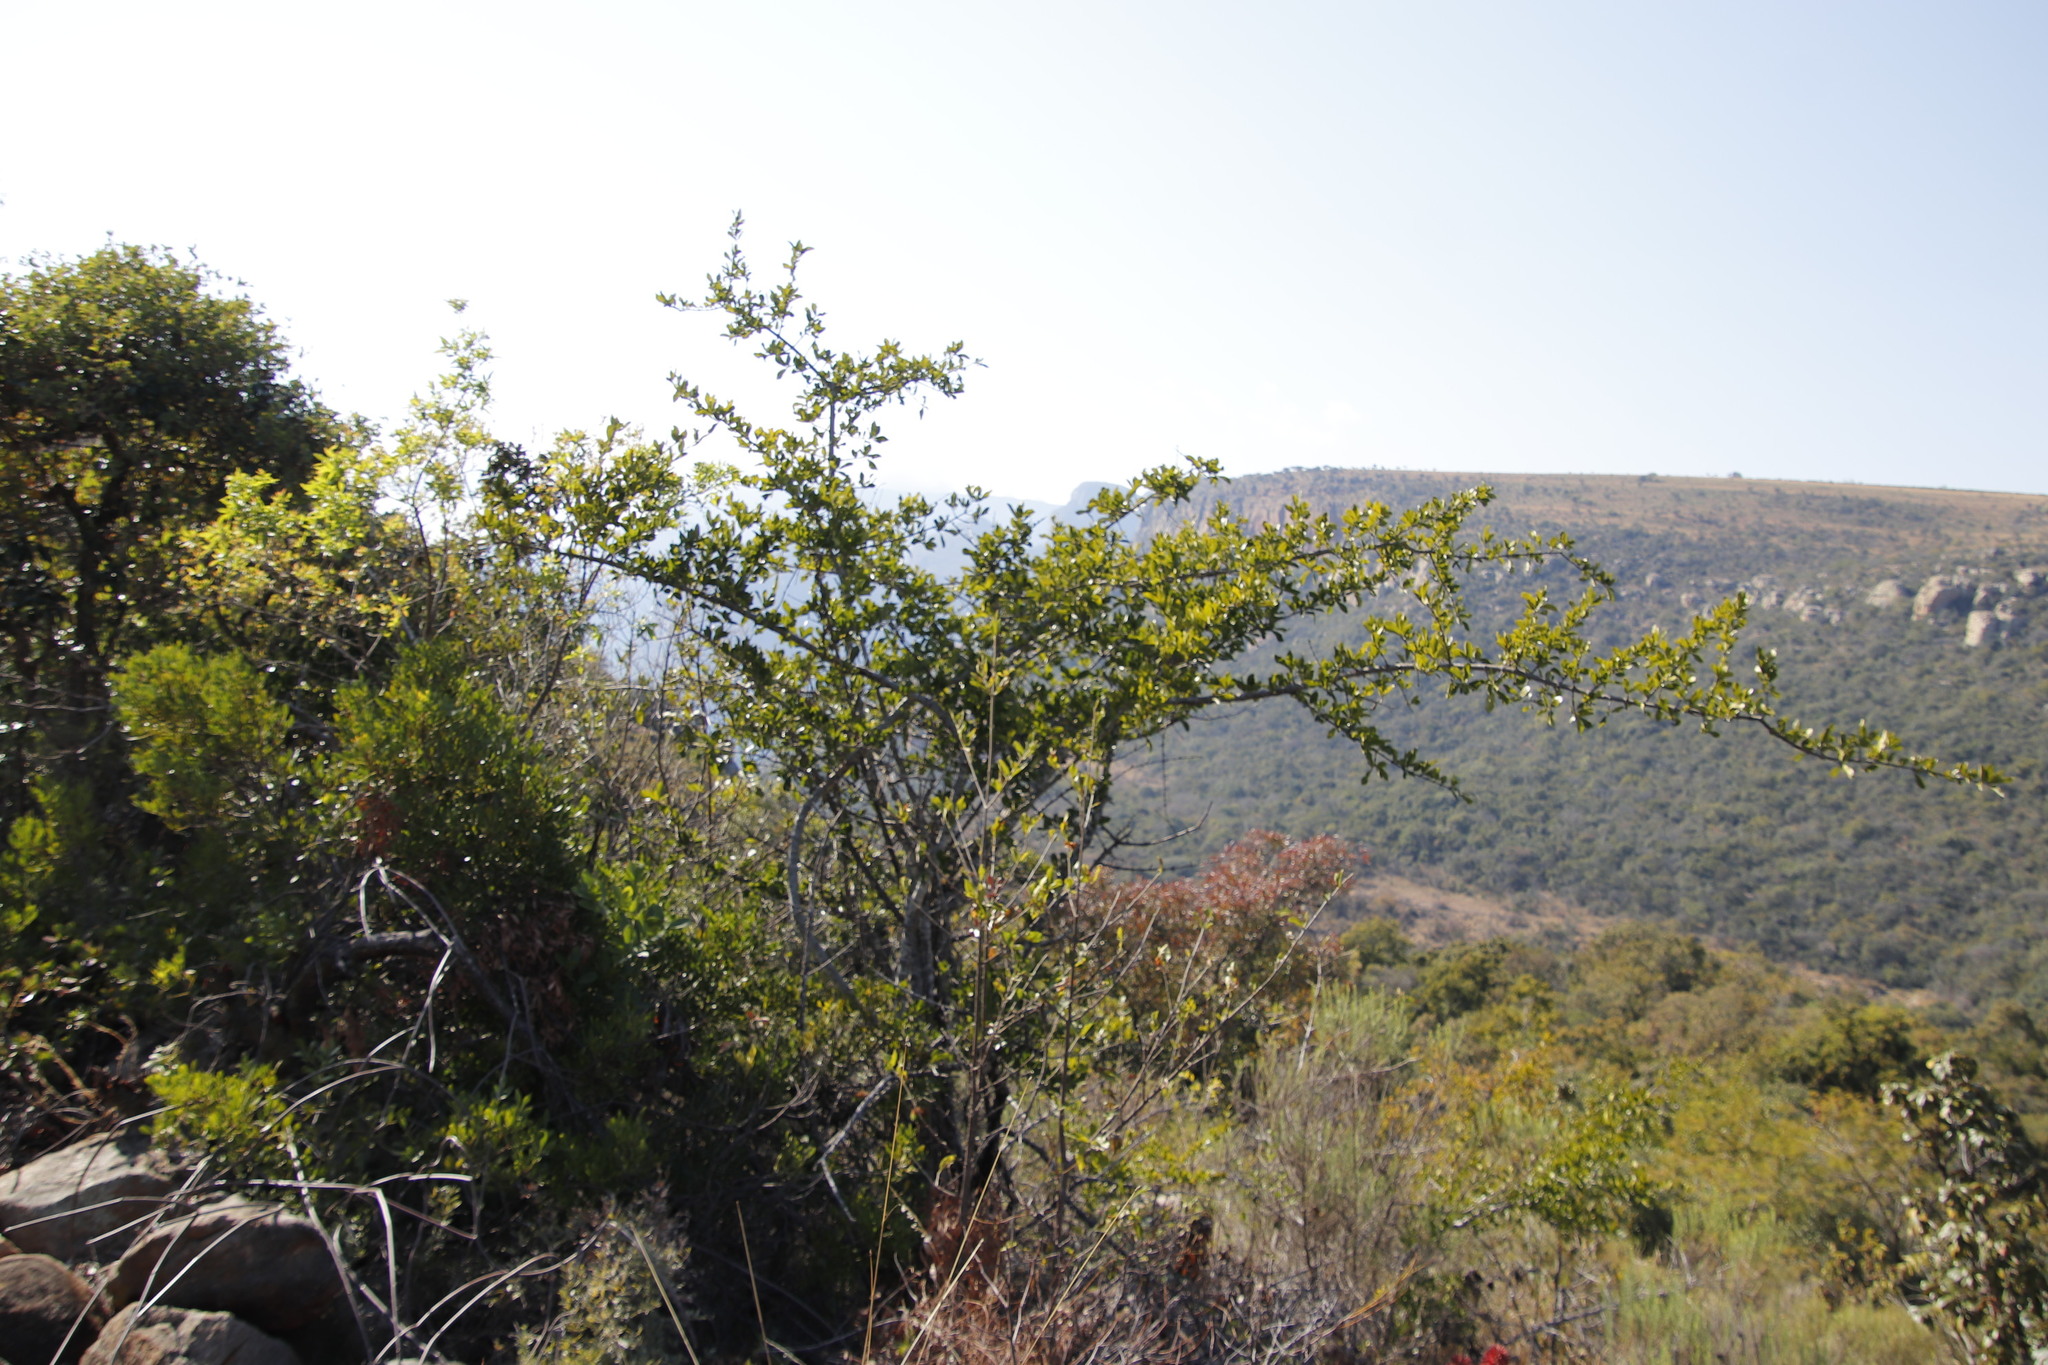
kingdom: Plantae
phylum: Tracheophyta
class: Magnoliopsida
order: Gentianales
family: Loganiaceae
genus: Strychnos
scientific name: Strychnos madagascariensis
